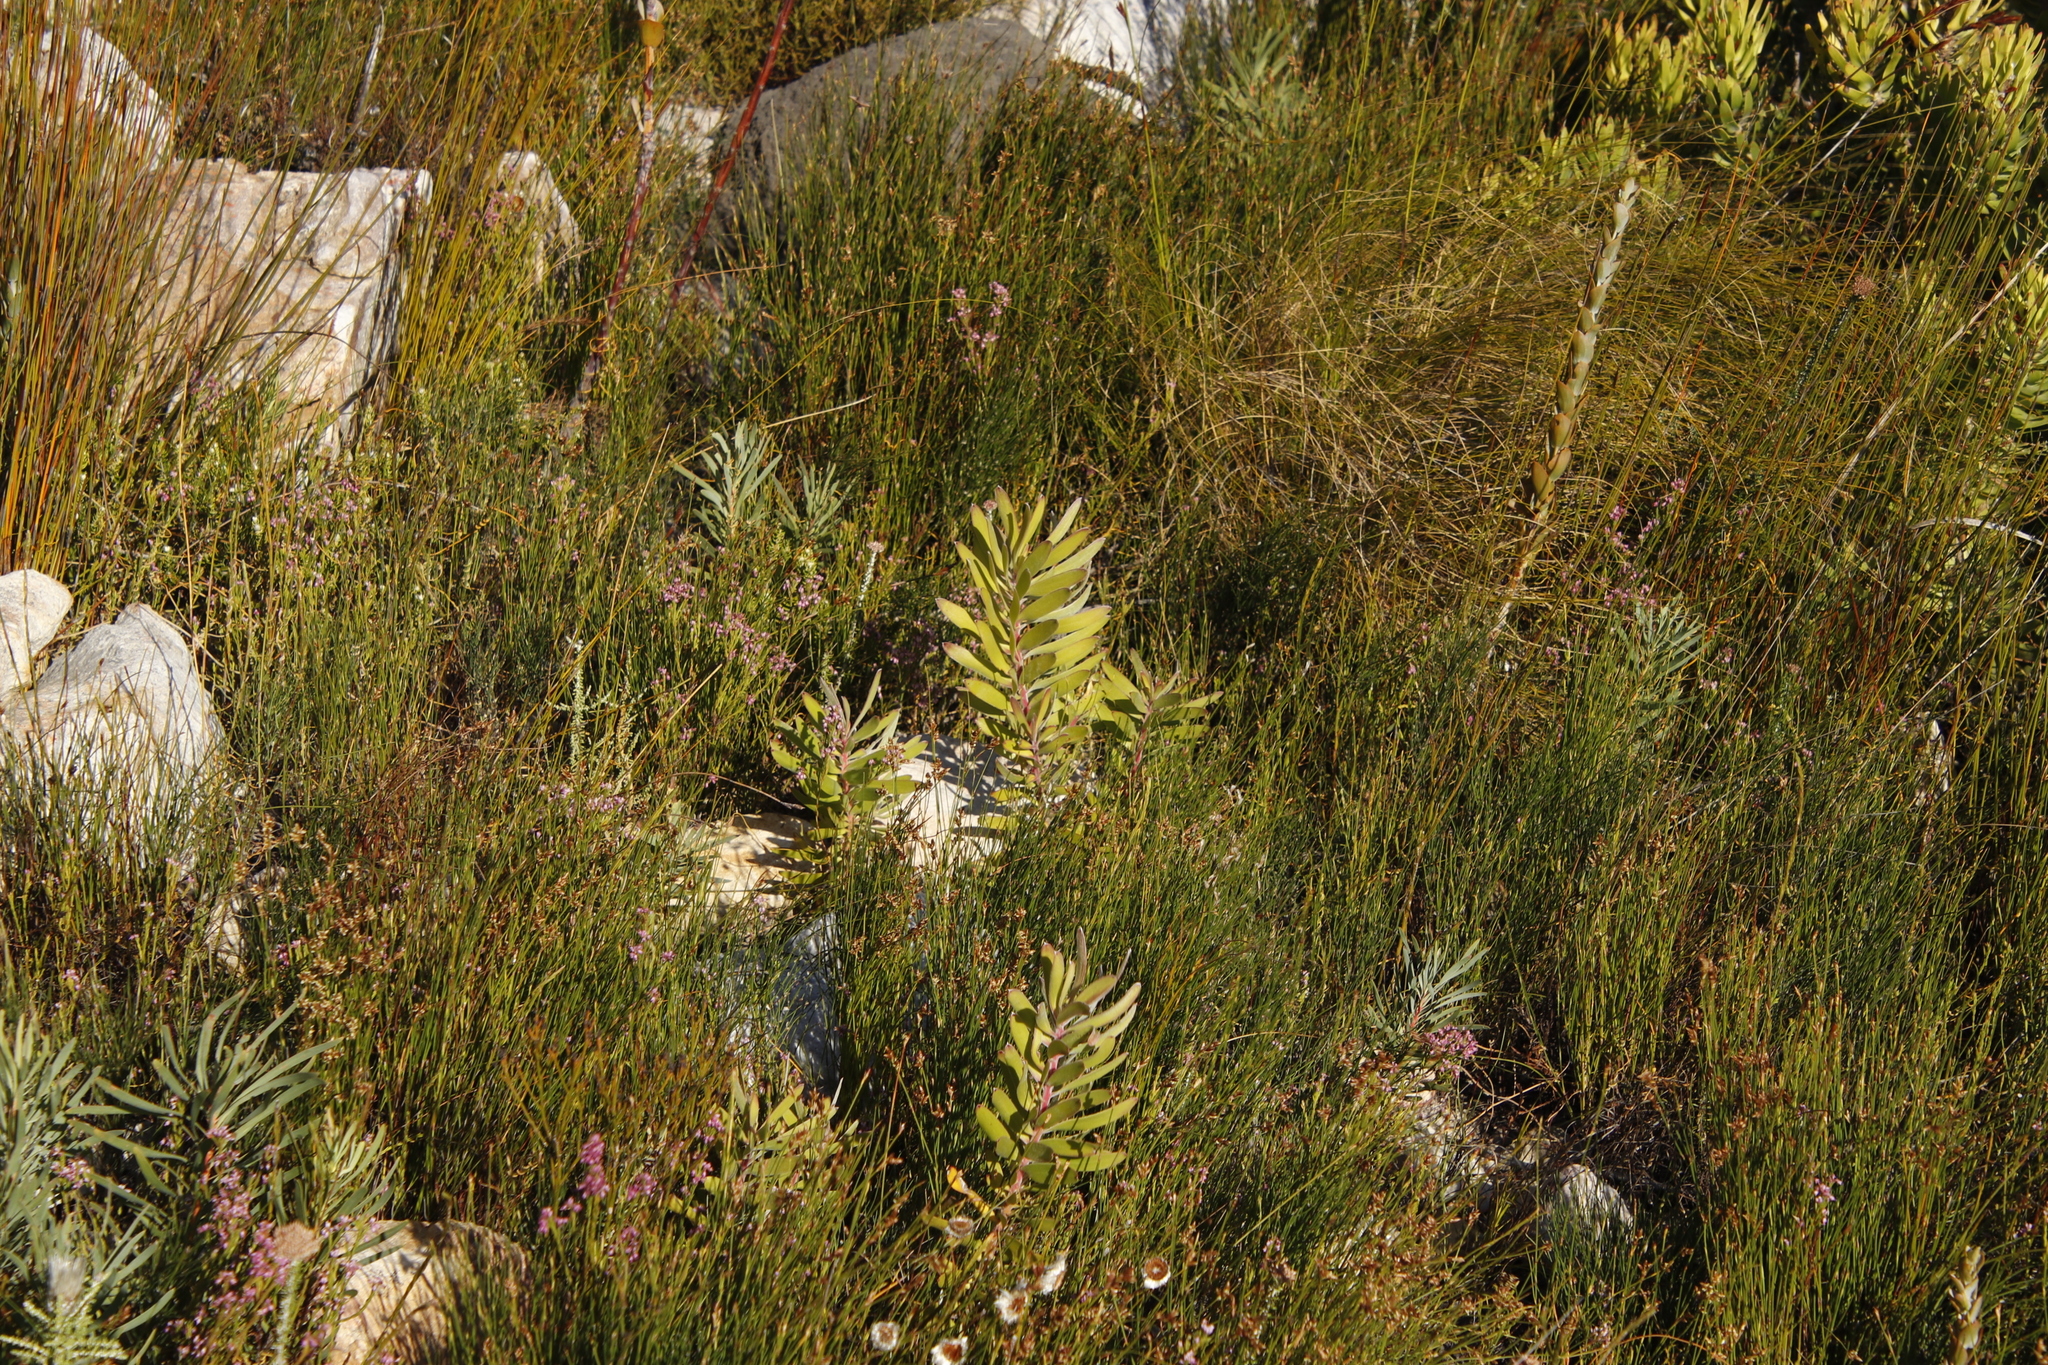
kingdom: Plantae
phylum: Tracheophyta
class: Magnoliopsida
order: Proteales
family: Proteaceae
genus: Leucadendron
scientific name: Leucadendron laureolum
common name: Golden sunshinebush
